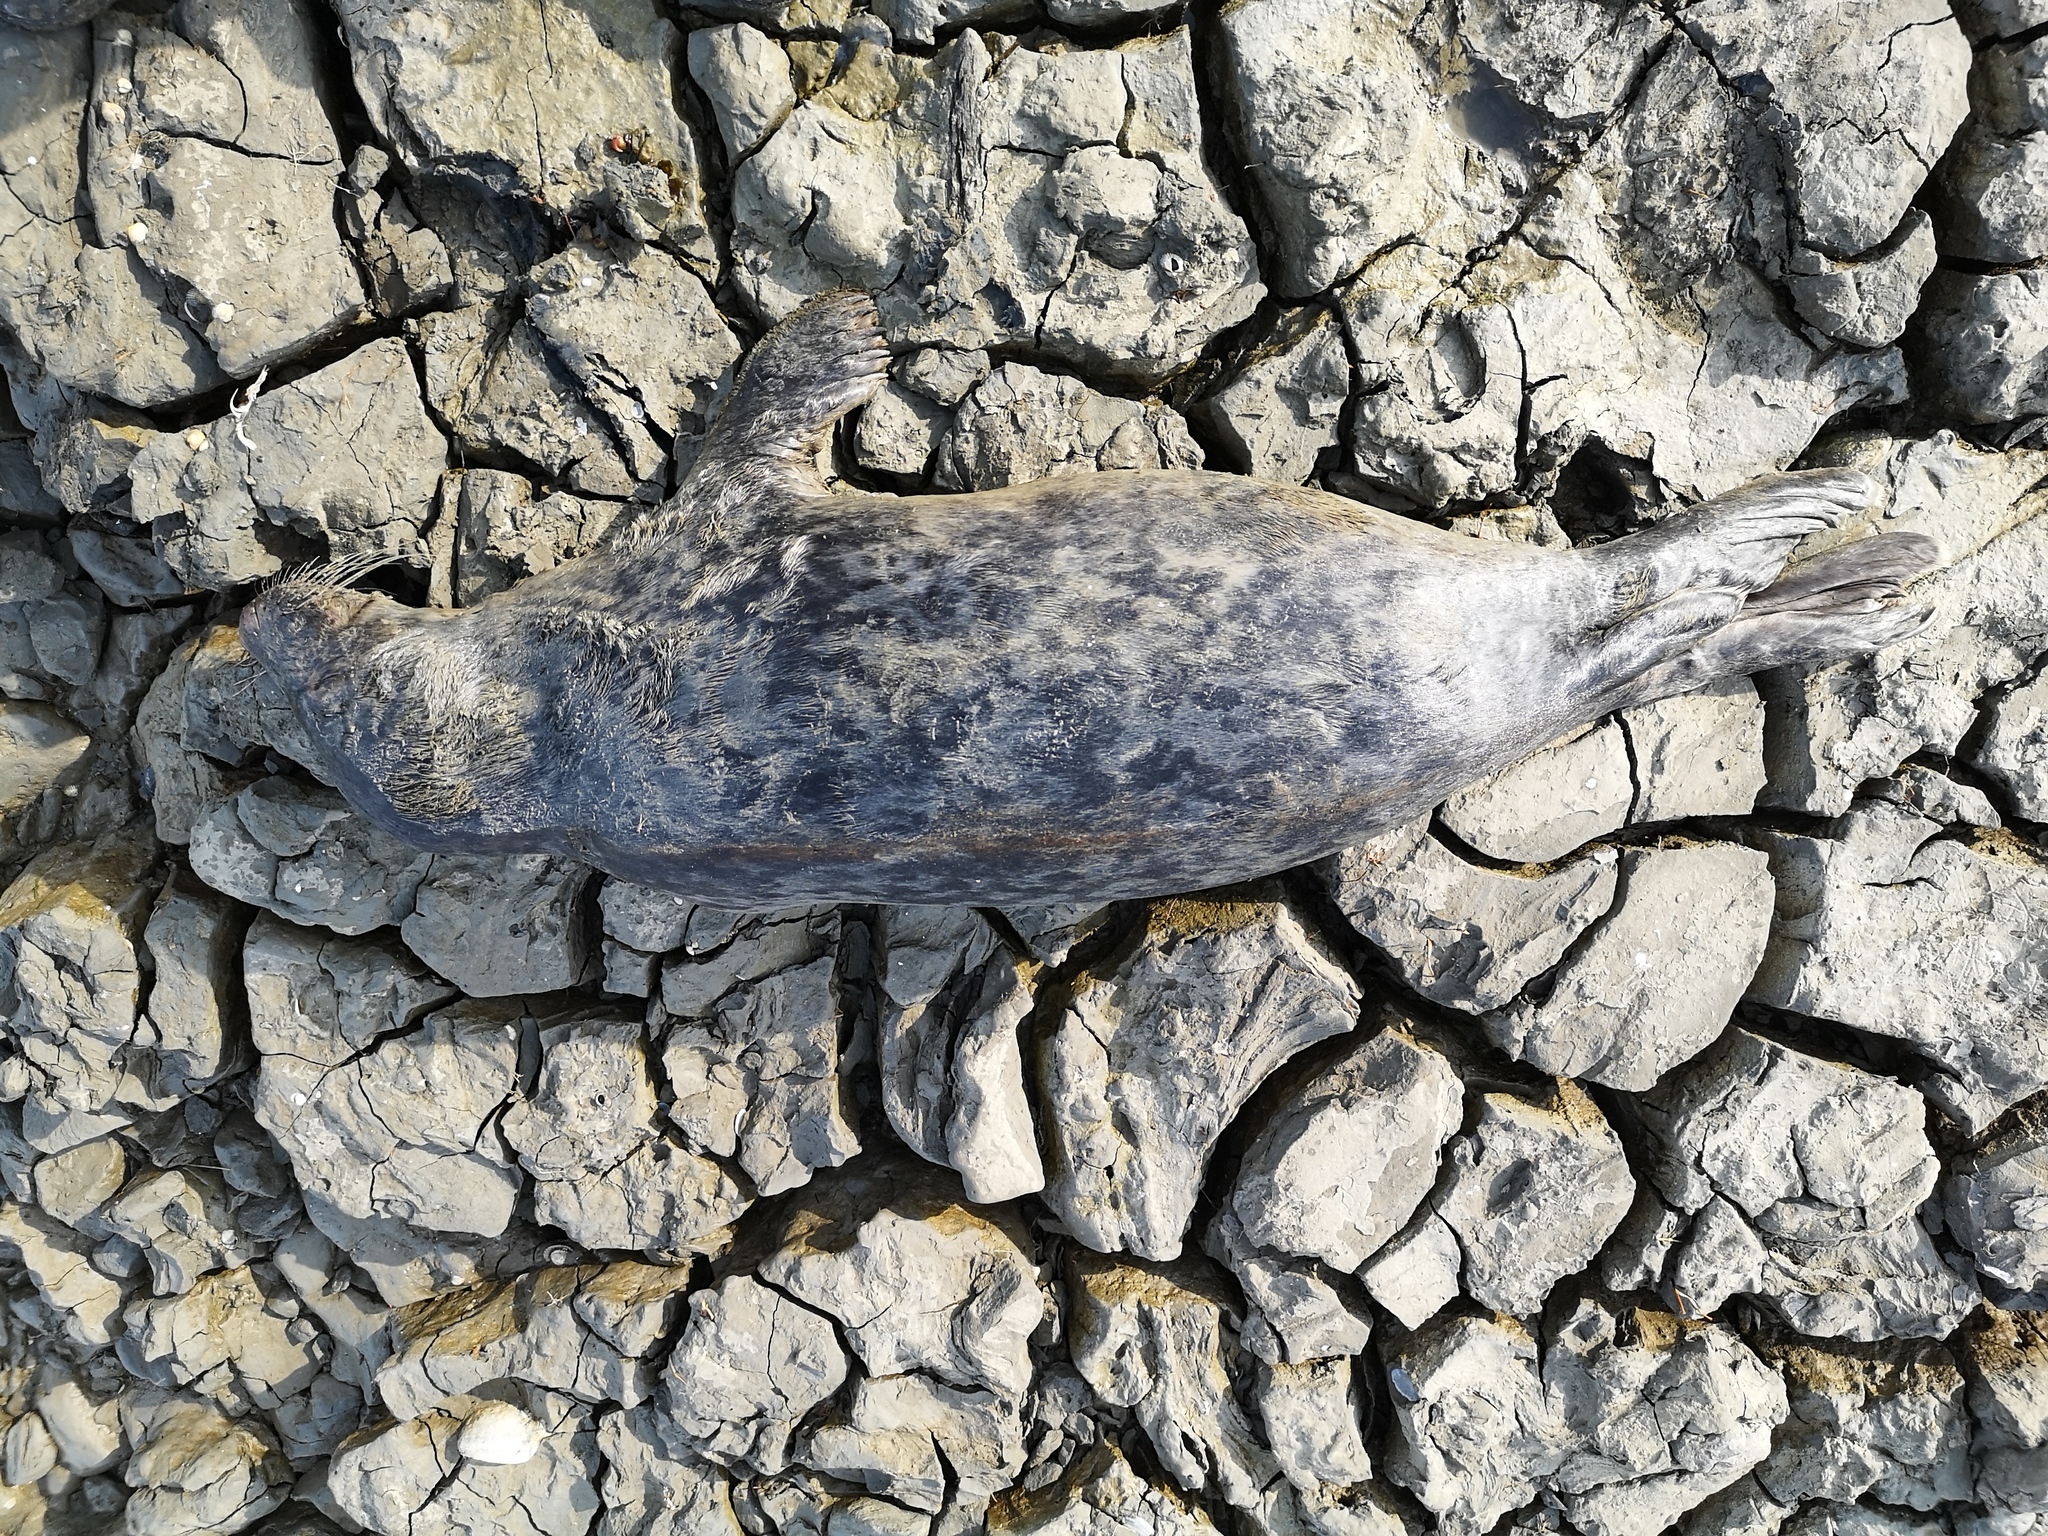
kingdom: Animalia
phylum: Chordata
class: Mammalia
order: Carnivora
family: Phocidae
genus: Halichoerus
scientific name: Halichoerus grypus
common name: Grey seal
